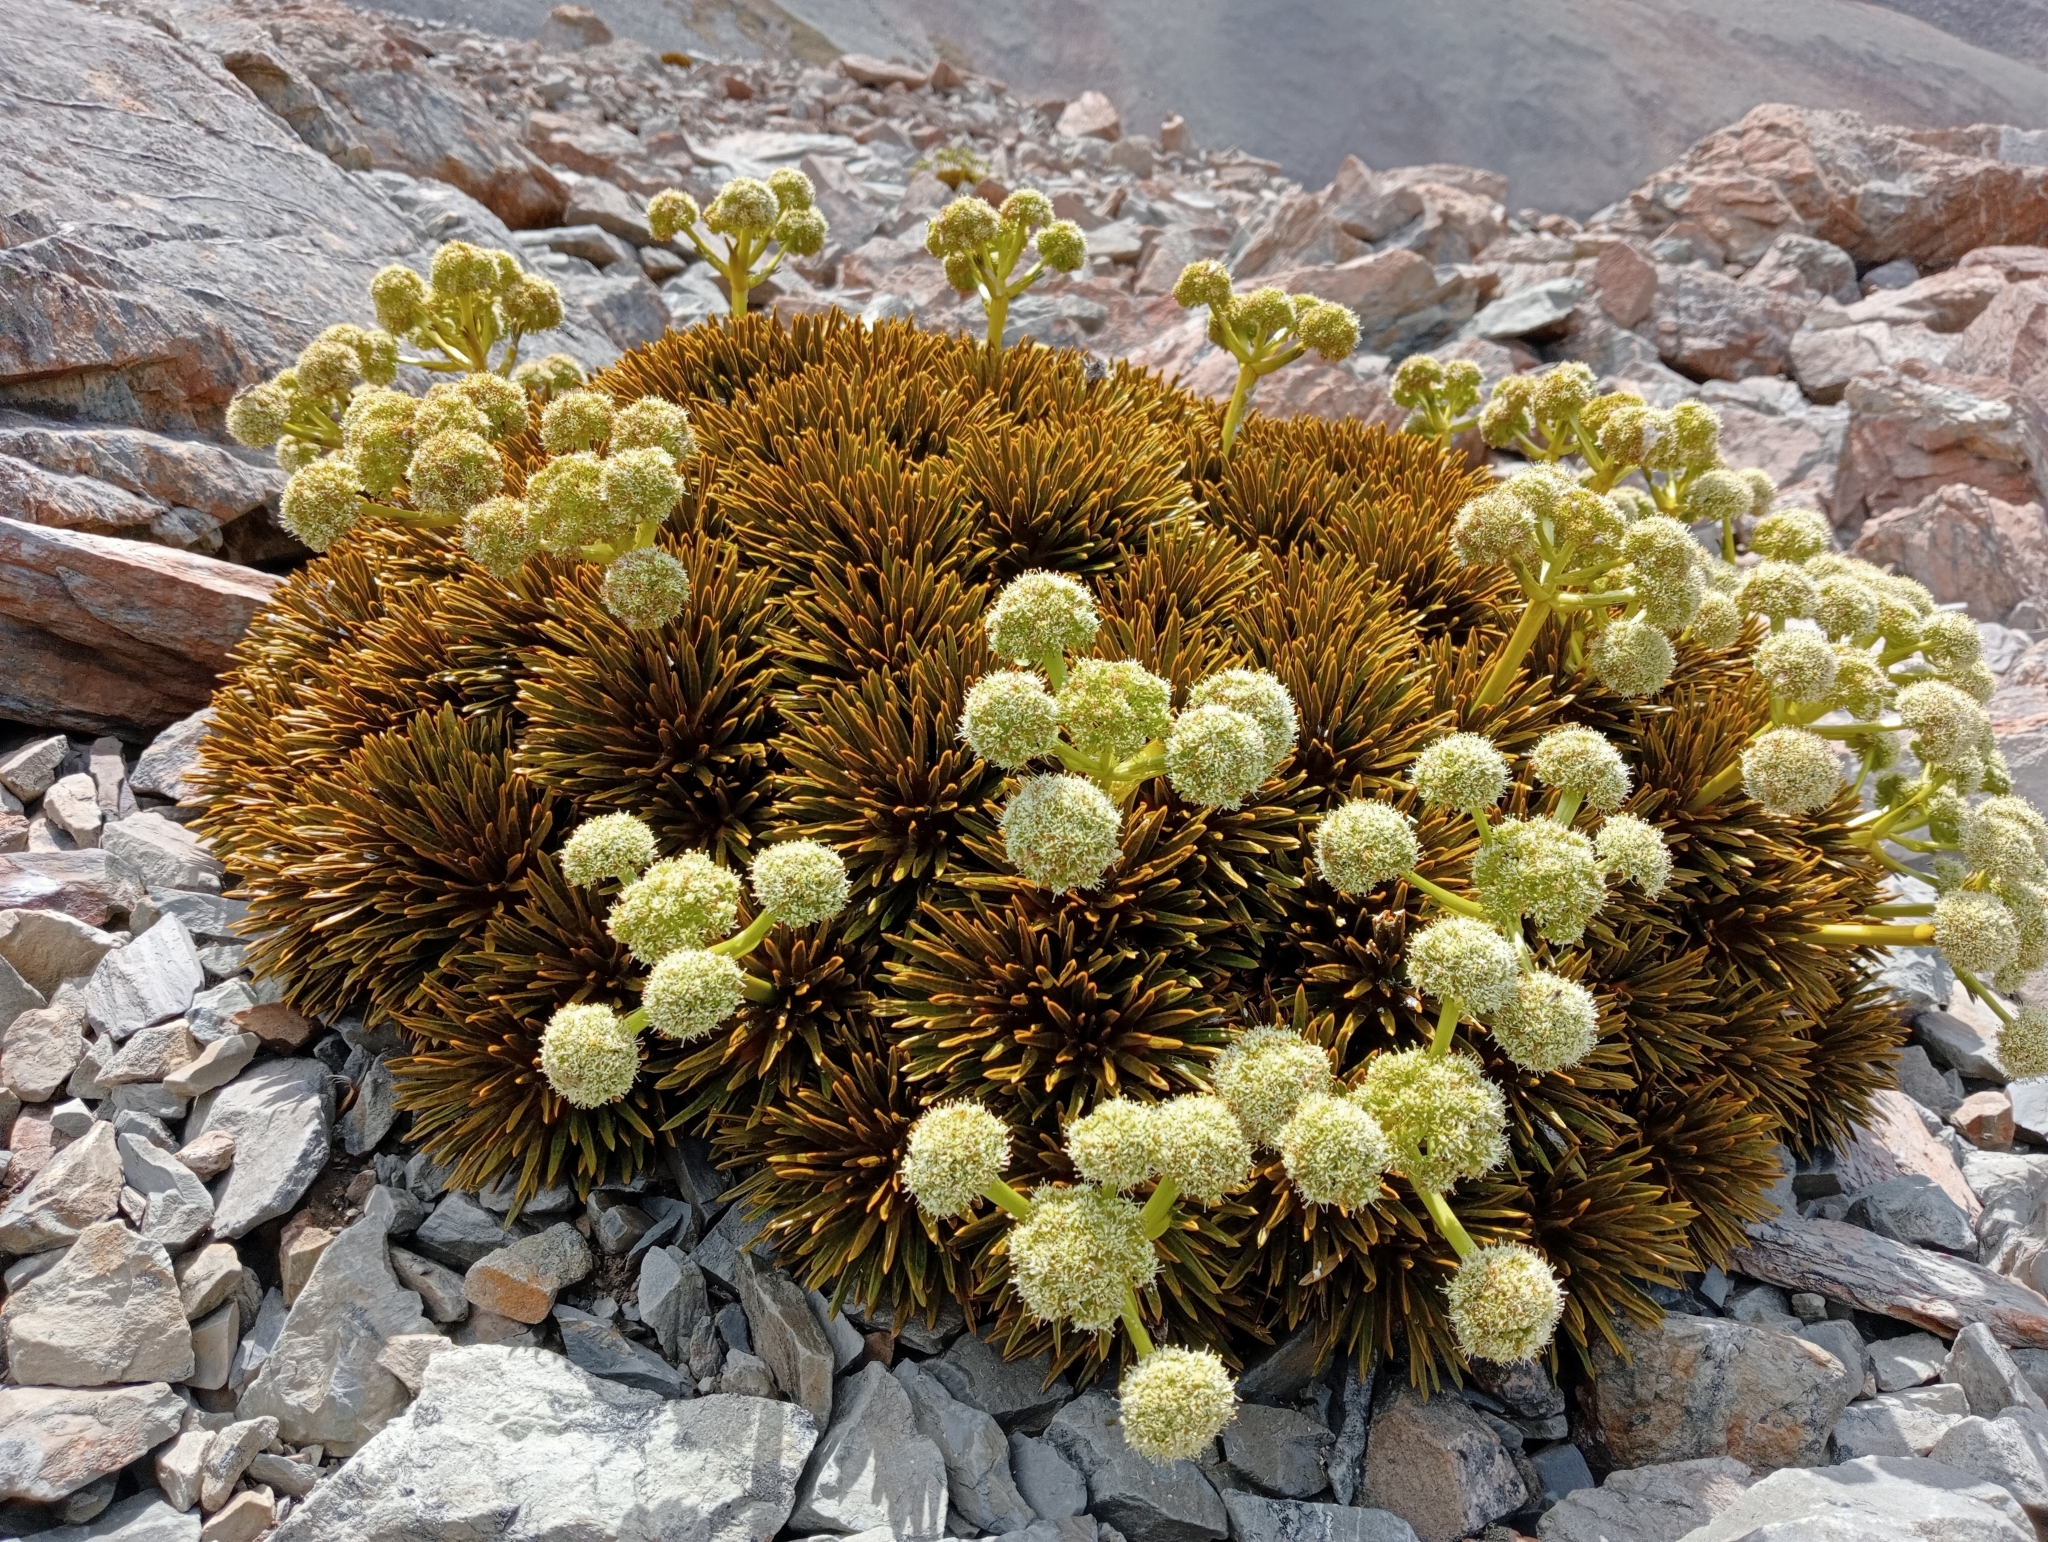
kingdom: Plantae
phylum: Tracheophyta
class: Magnoliopsida
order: Apiales
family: Apiaceae
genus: Aciphylla
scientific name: Aciphylla dobsonii
